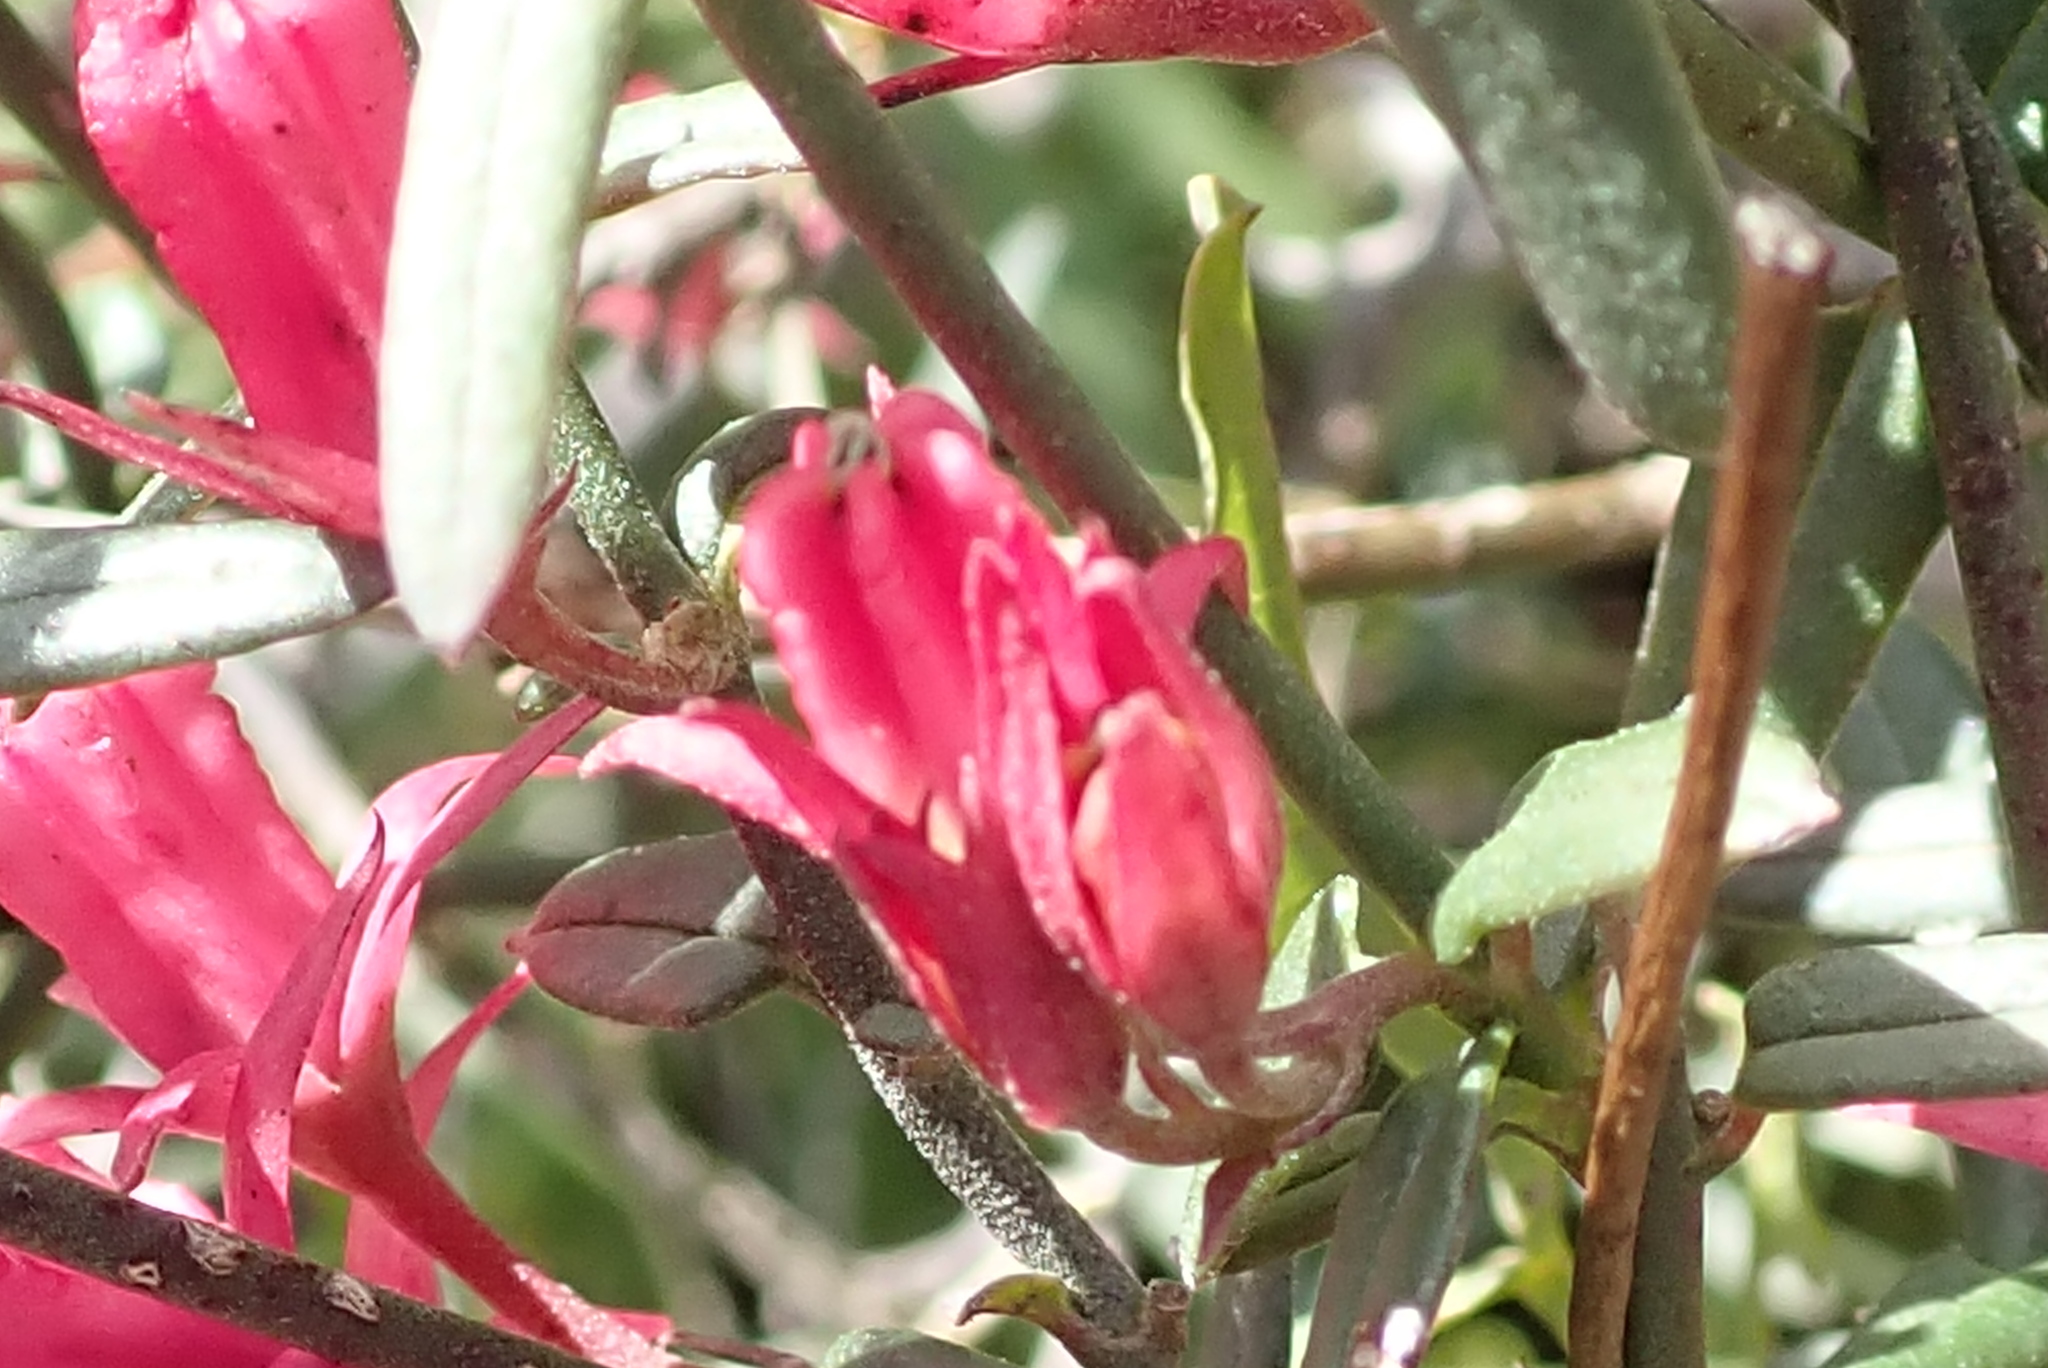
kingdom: Plantae
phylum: Tracheophyta
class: Magnoliopsida
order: Gentianales
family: Apocynaceae
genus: Microloma
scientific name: Microloma sagittatum
